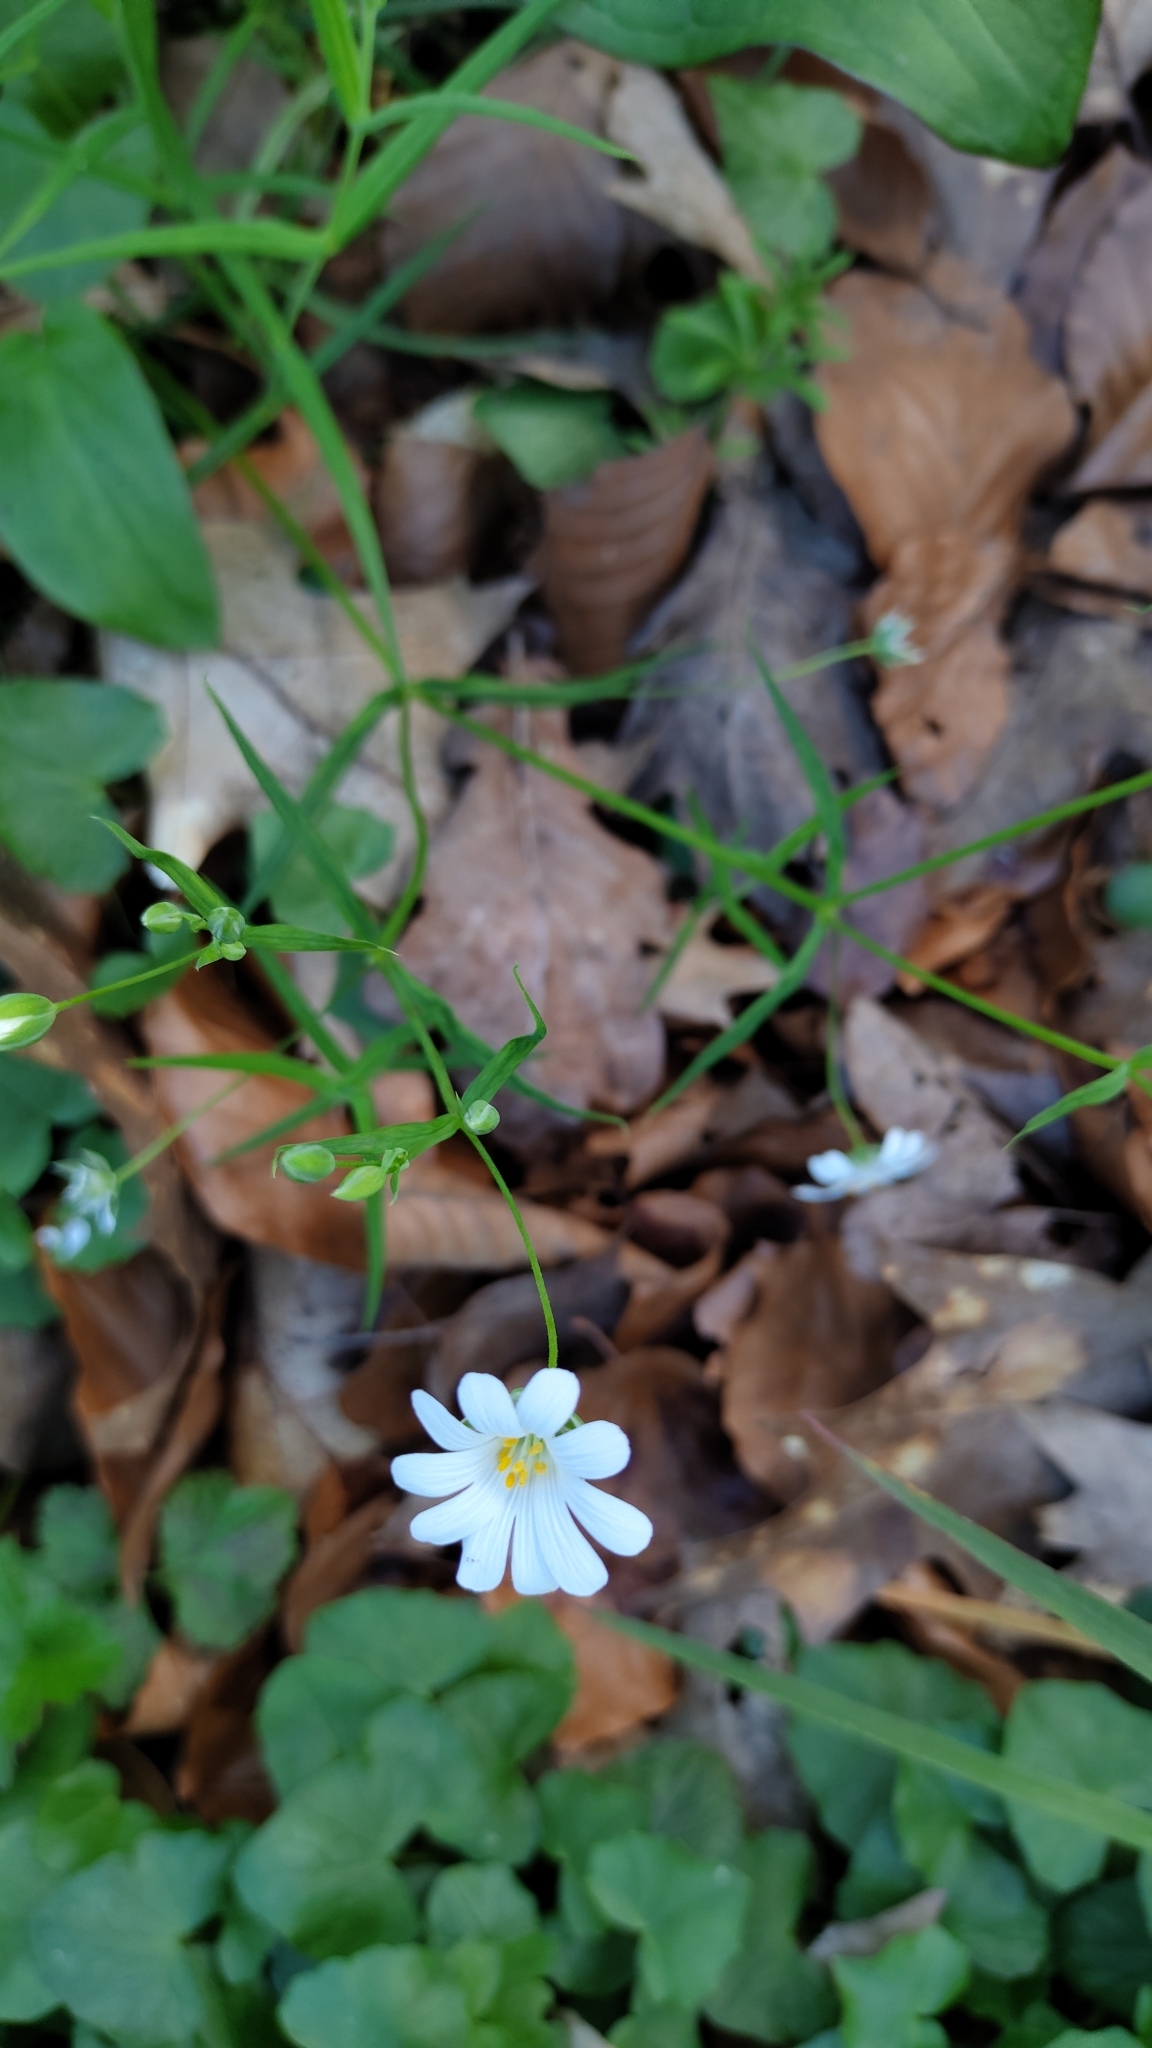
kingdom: Plantae
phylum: Tracheophyta
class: Magnoliopsida
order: Caryophyllales
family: Caryophyllaceae
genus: Rabelera
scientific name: Rabelera holostea
